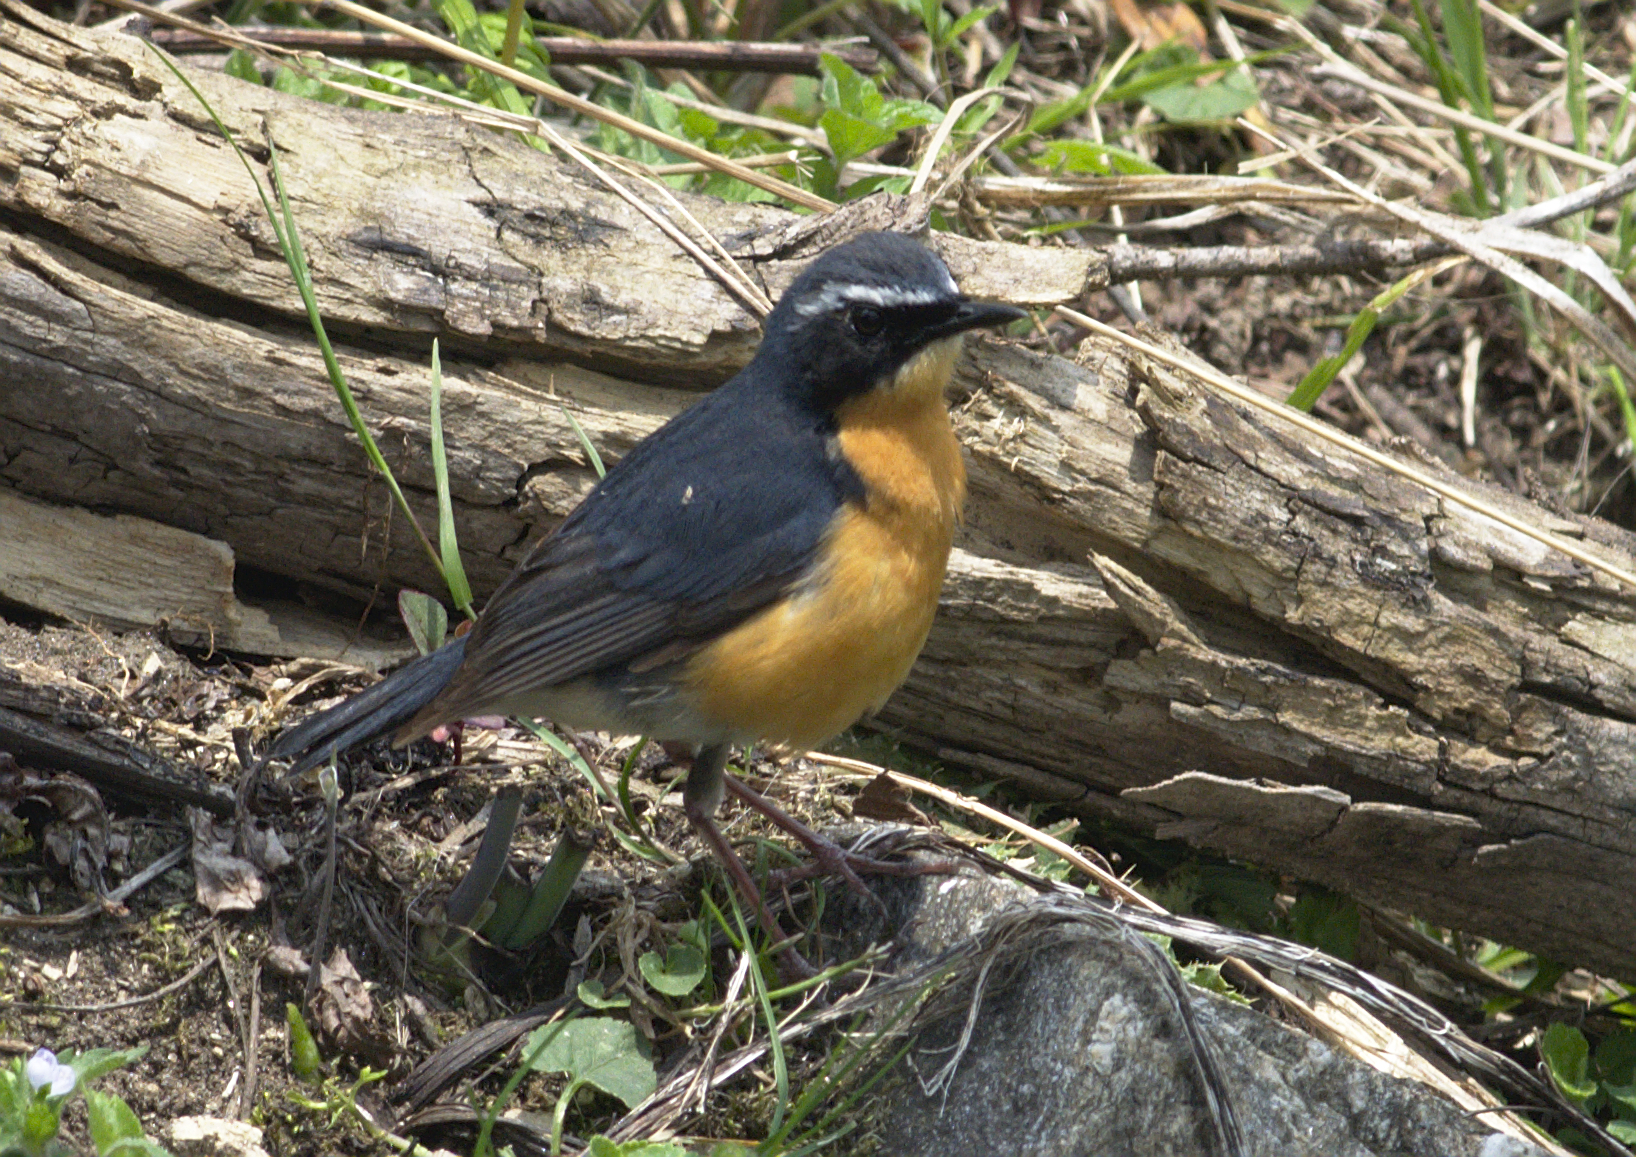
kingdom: Animalia
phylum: Chordata
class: Aves
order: Passeriformes
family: Muscicapidae
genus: Luscinia
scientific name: Luscinia brunnea
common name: Indian blue robin
